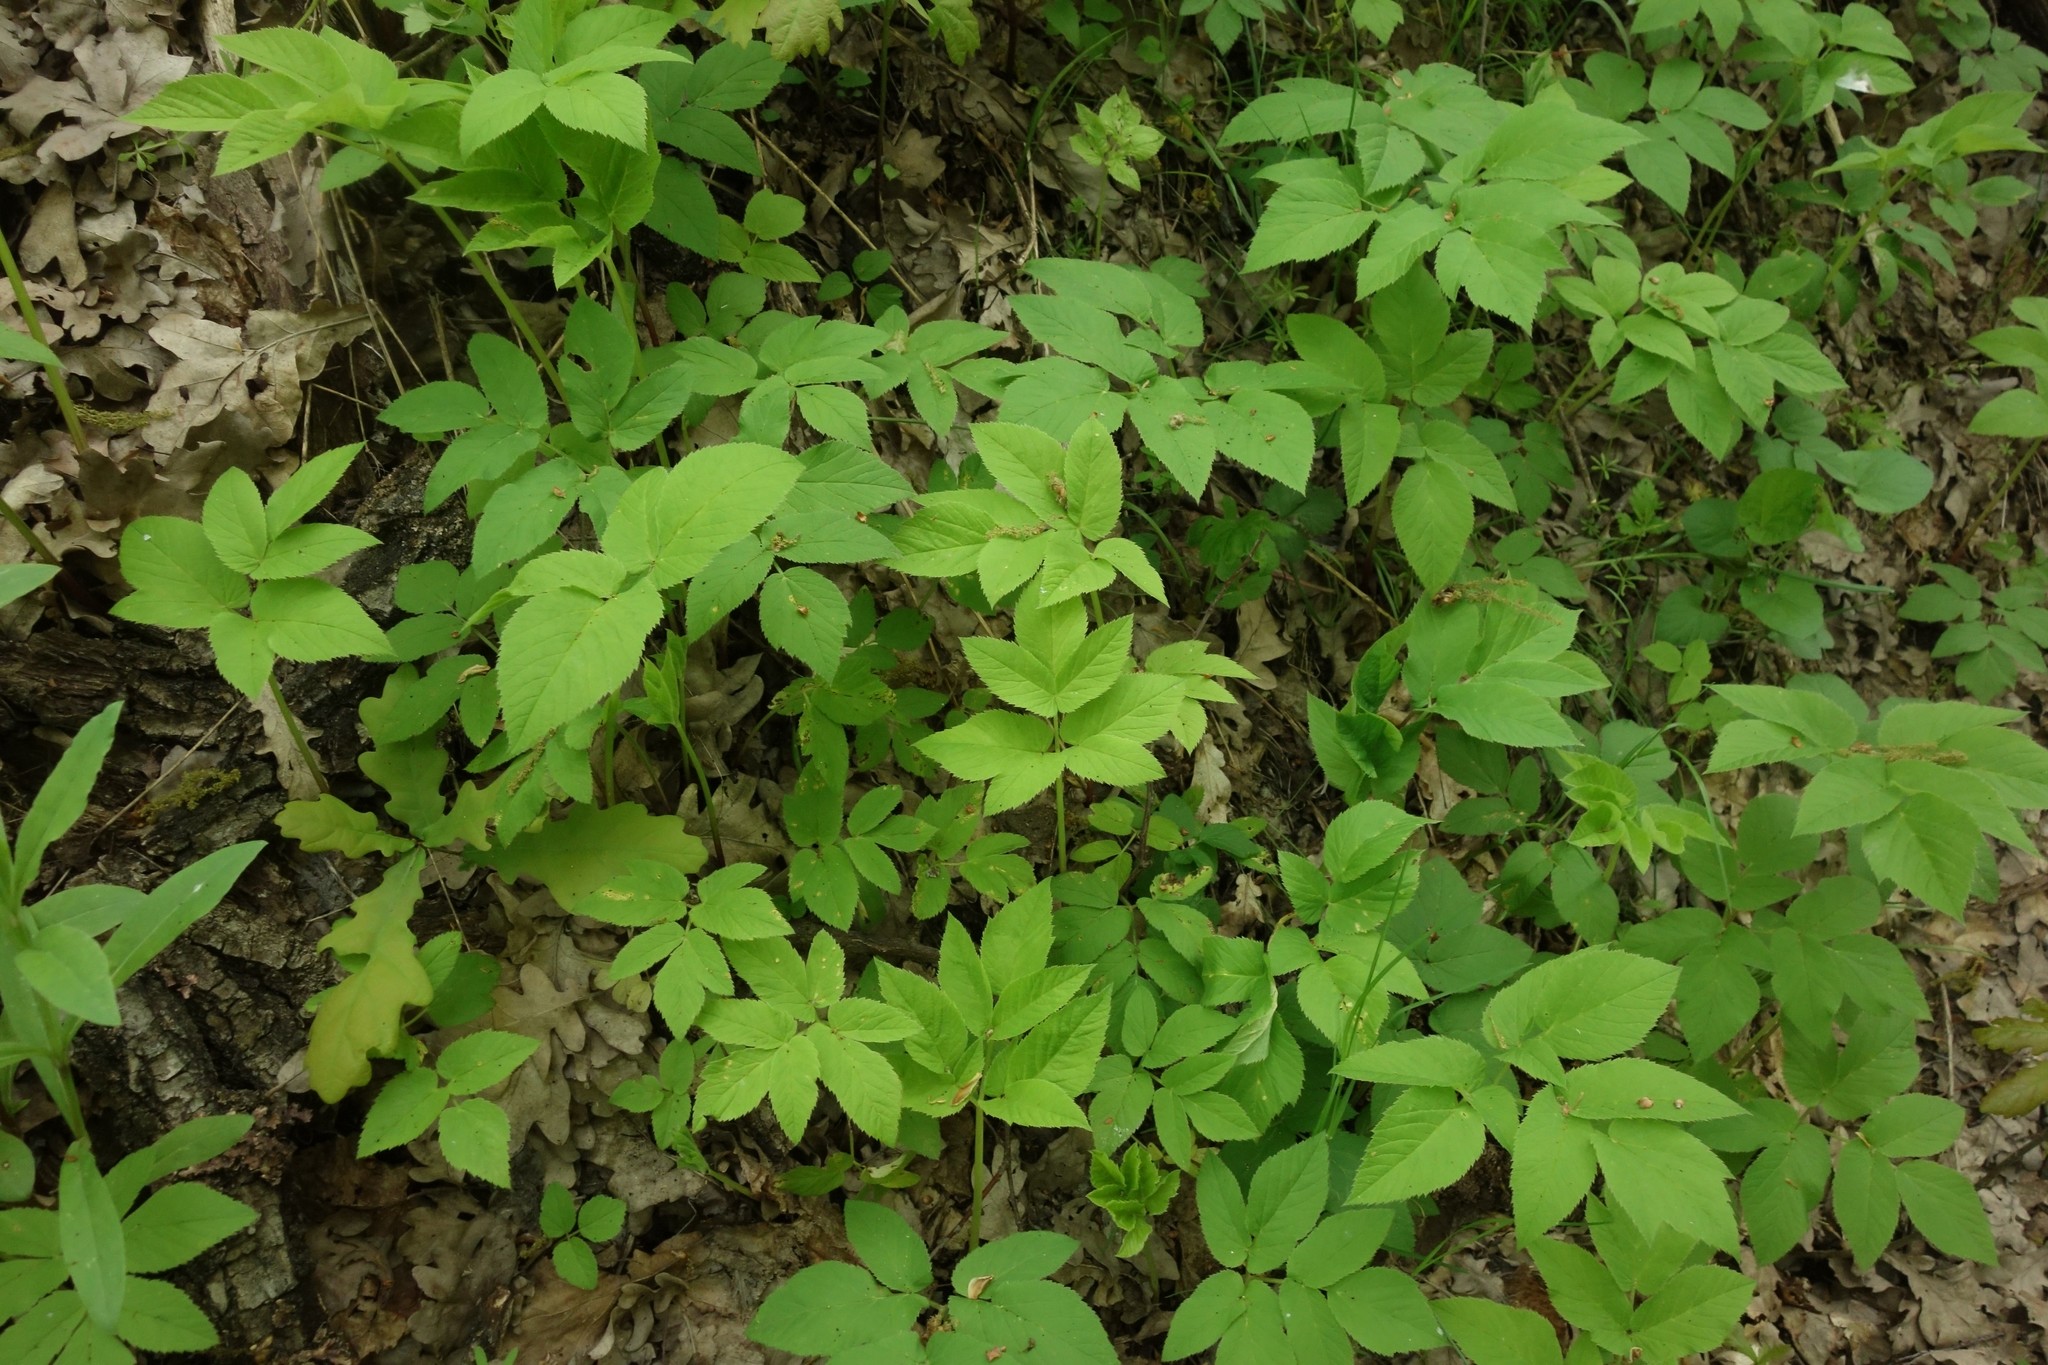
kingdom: Plantae
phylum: Tracheophyta
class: Magnoliopsida
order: Apiales
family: Apiaceae
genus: Aegopodium
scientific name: Aegopodium podagraria
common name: Ground-elder
